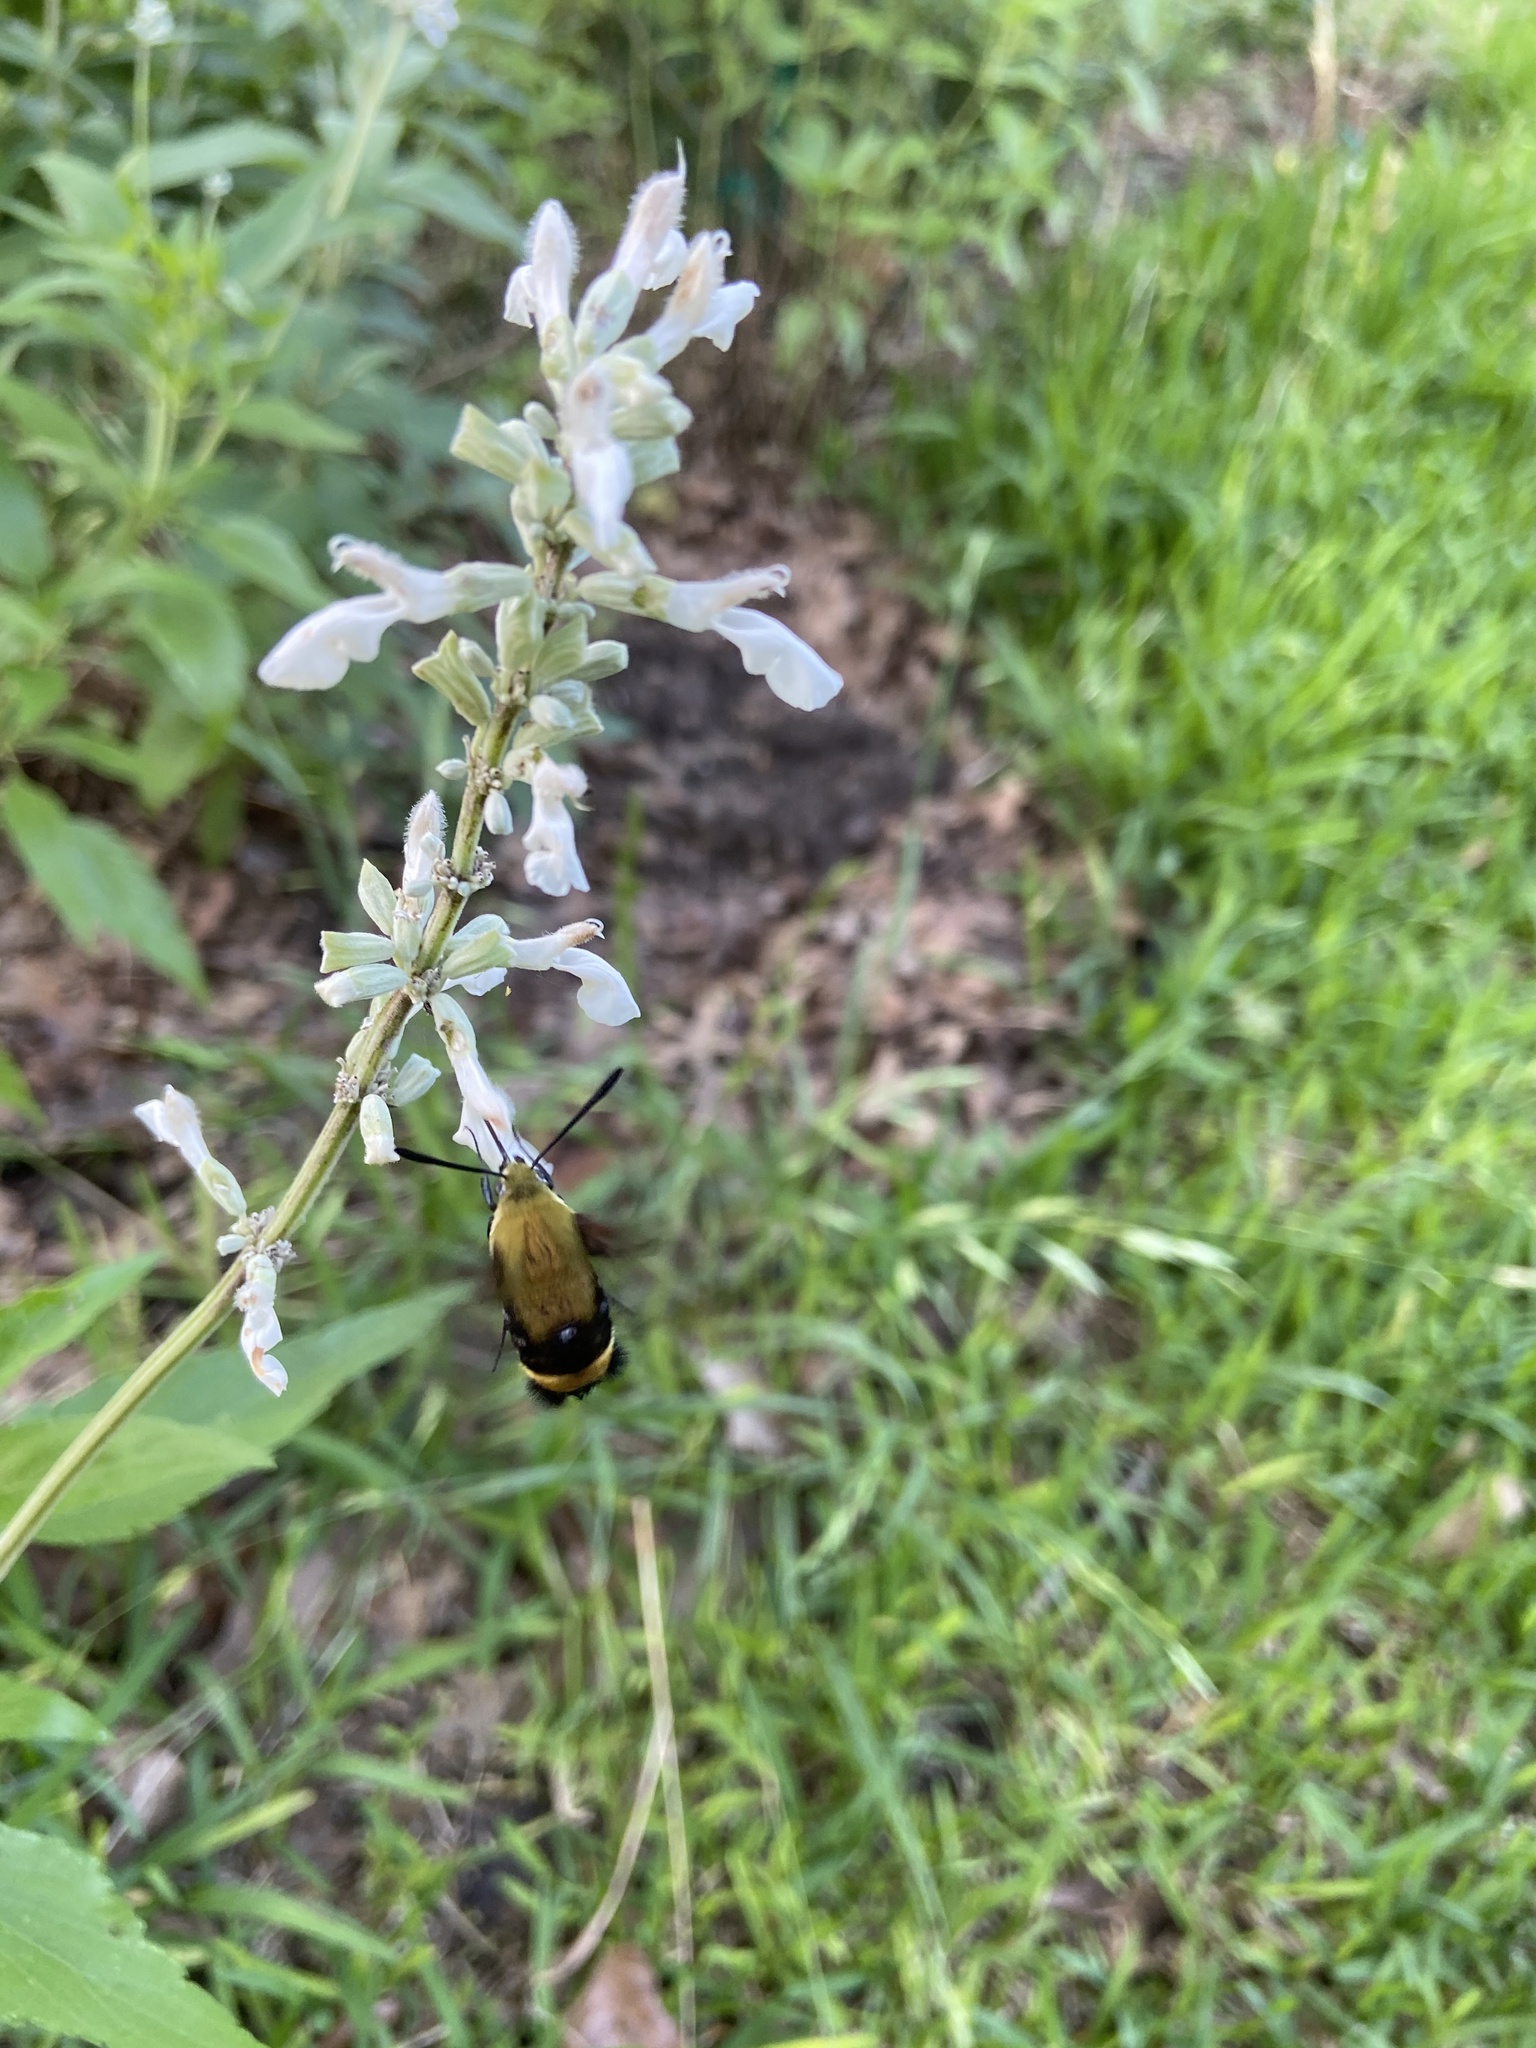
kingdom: Animalia
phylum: Arthropoda
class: Insecta
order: Lepidoptera
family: Sphingidae
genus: Hemaris
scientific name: Hemaris diffinis
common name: Bumblebee moth
